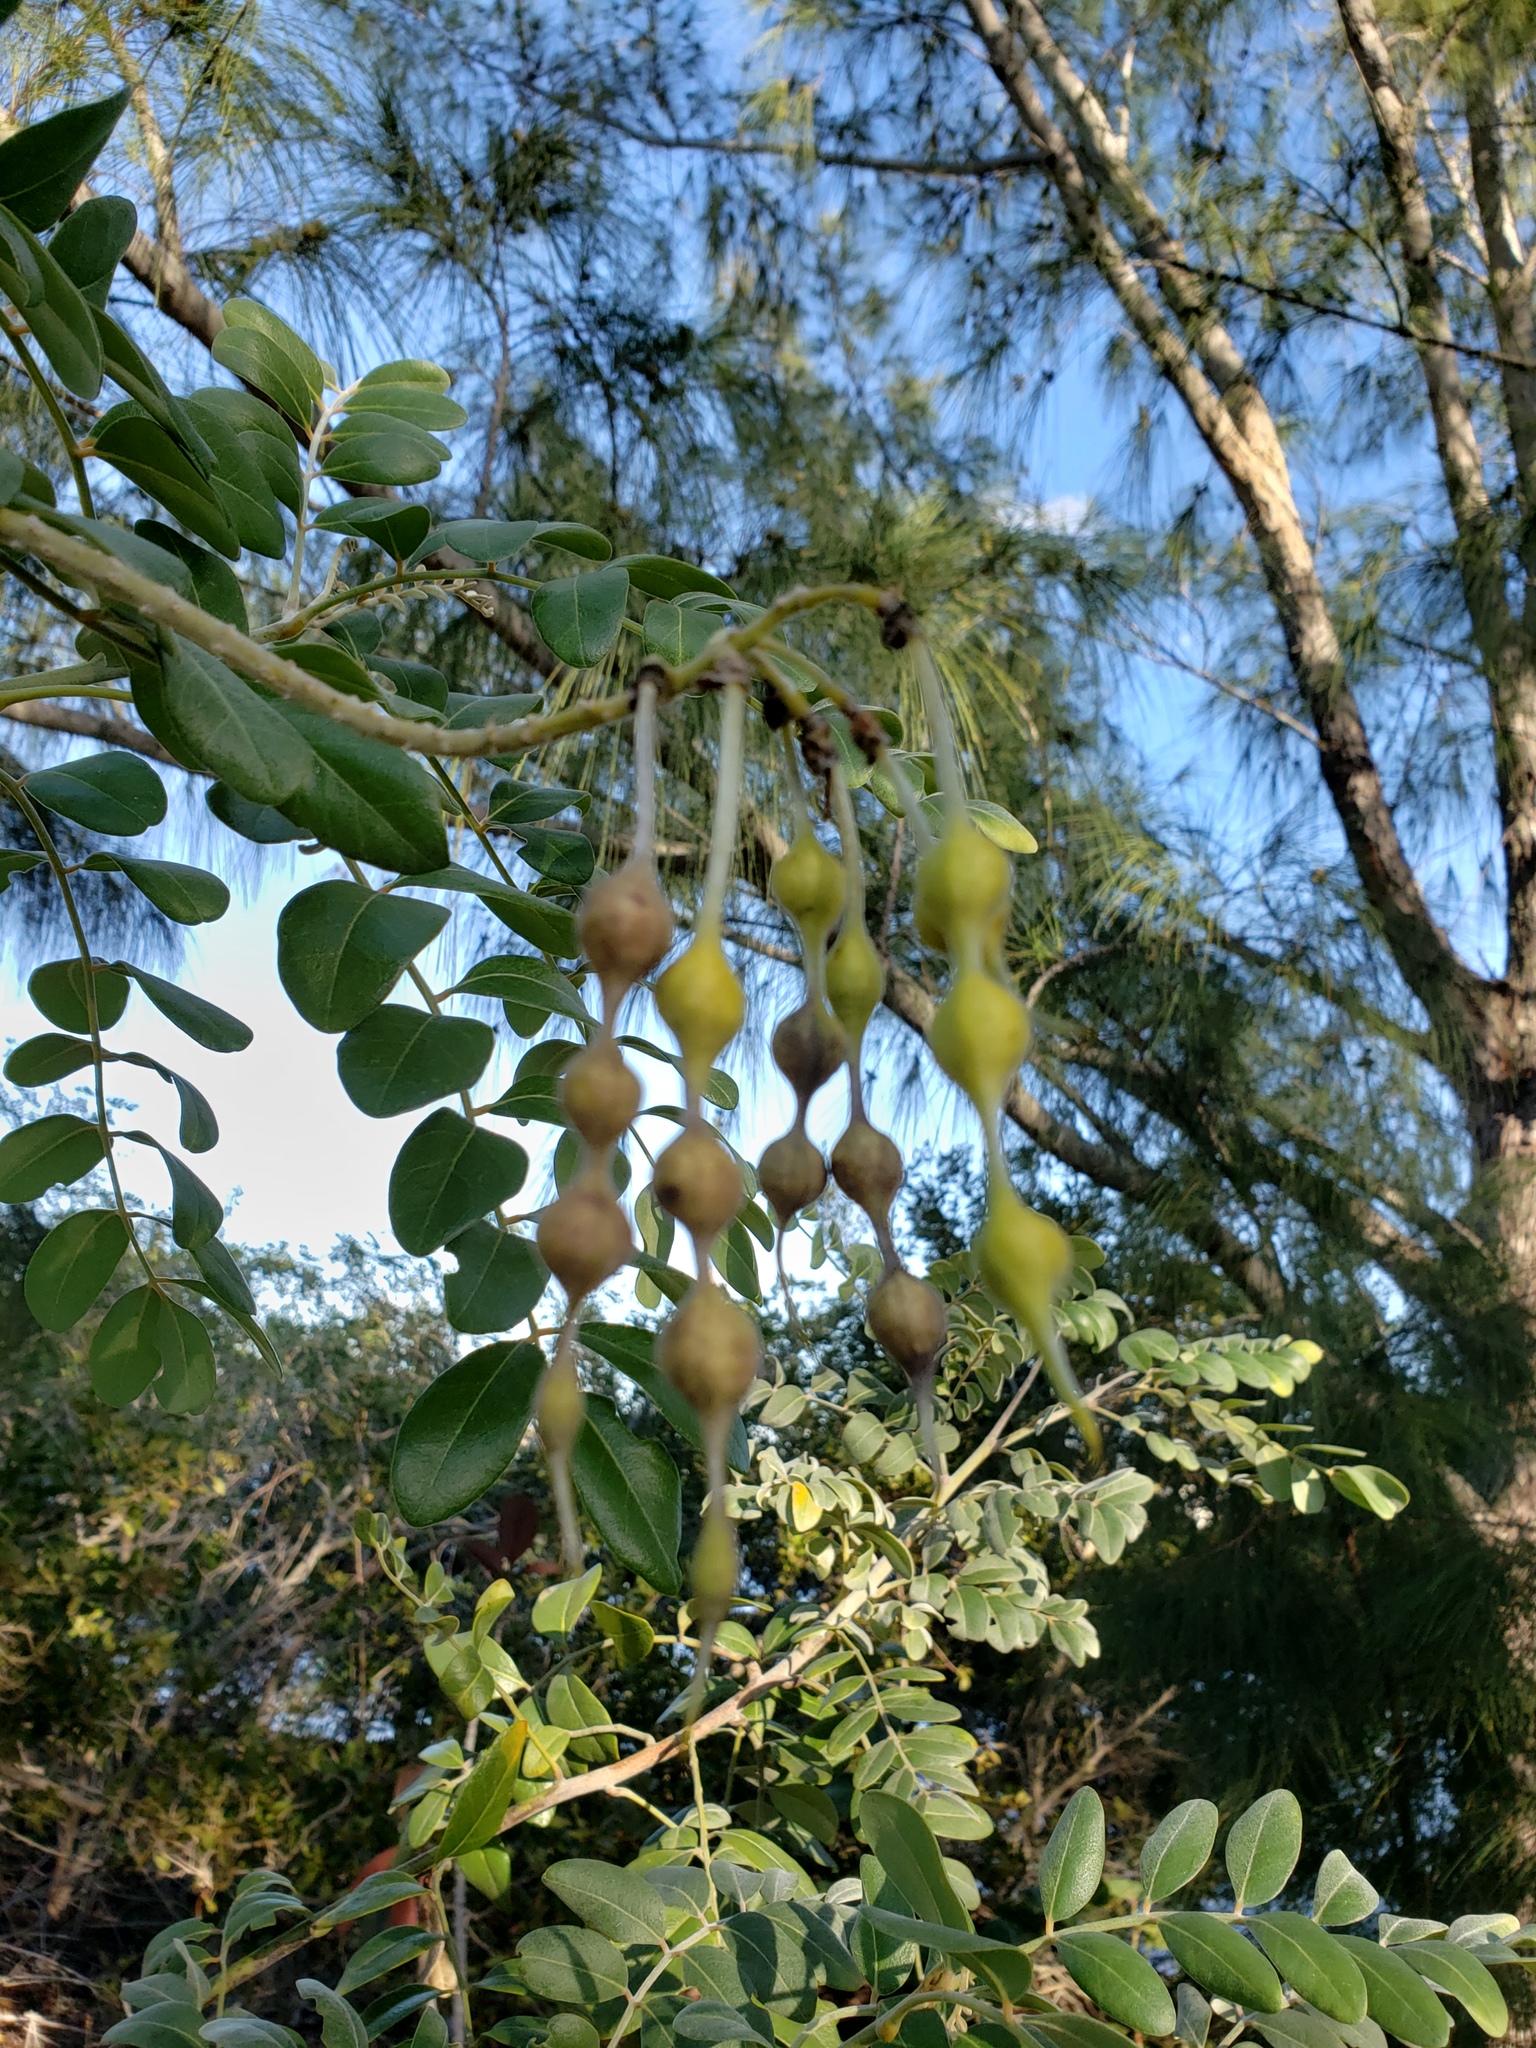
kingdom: Plantae
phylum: Tracheophyta
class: Magnoliopsida
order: Fabales
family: Fabaceae
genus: Sophora
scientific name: Sophora tomentosa
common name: Yellow necklacepod
